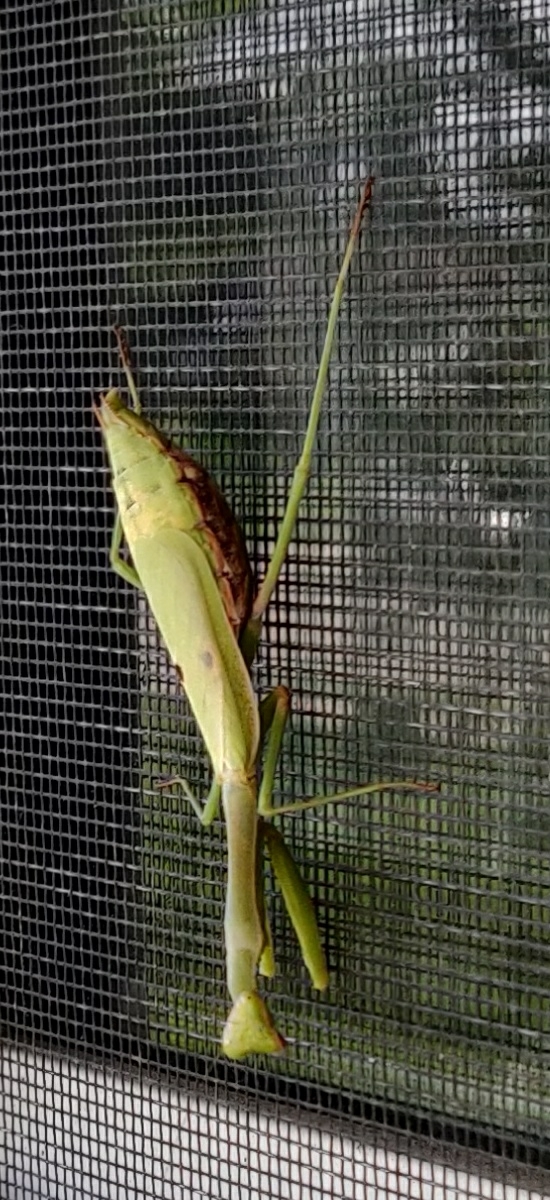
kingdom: Animalia
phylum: Arthropoda
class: Insecta
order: Mantodea
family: Mantidae
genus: Stagmomantis
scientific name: Stagmomantis carolina
